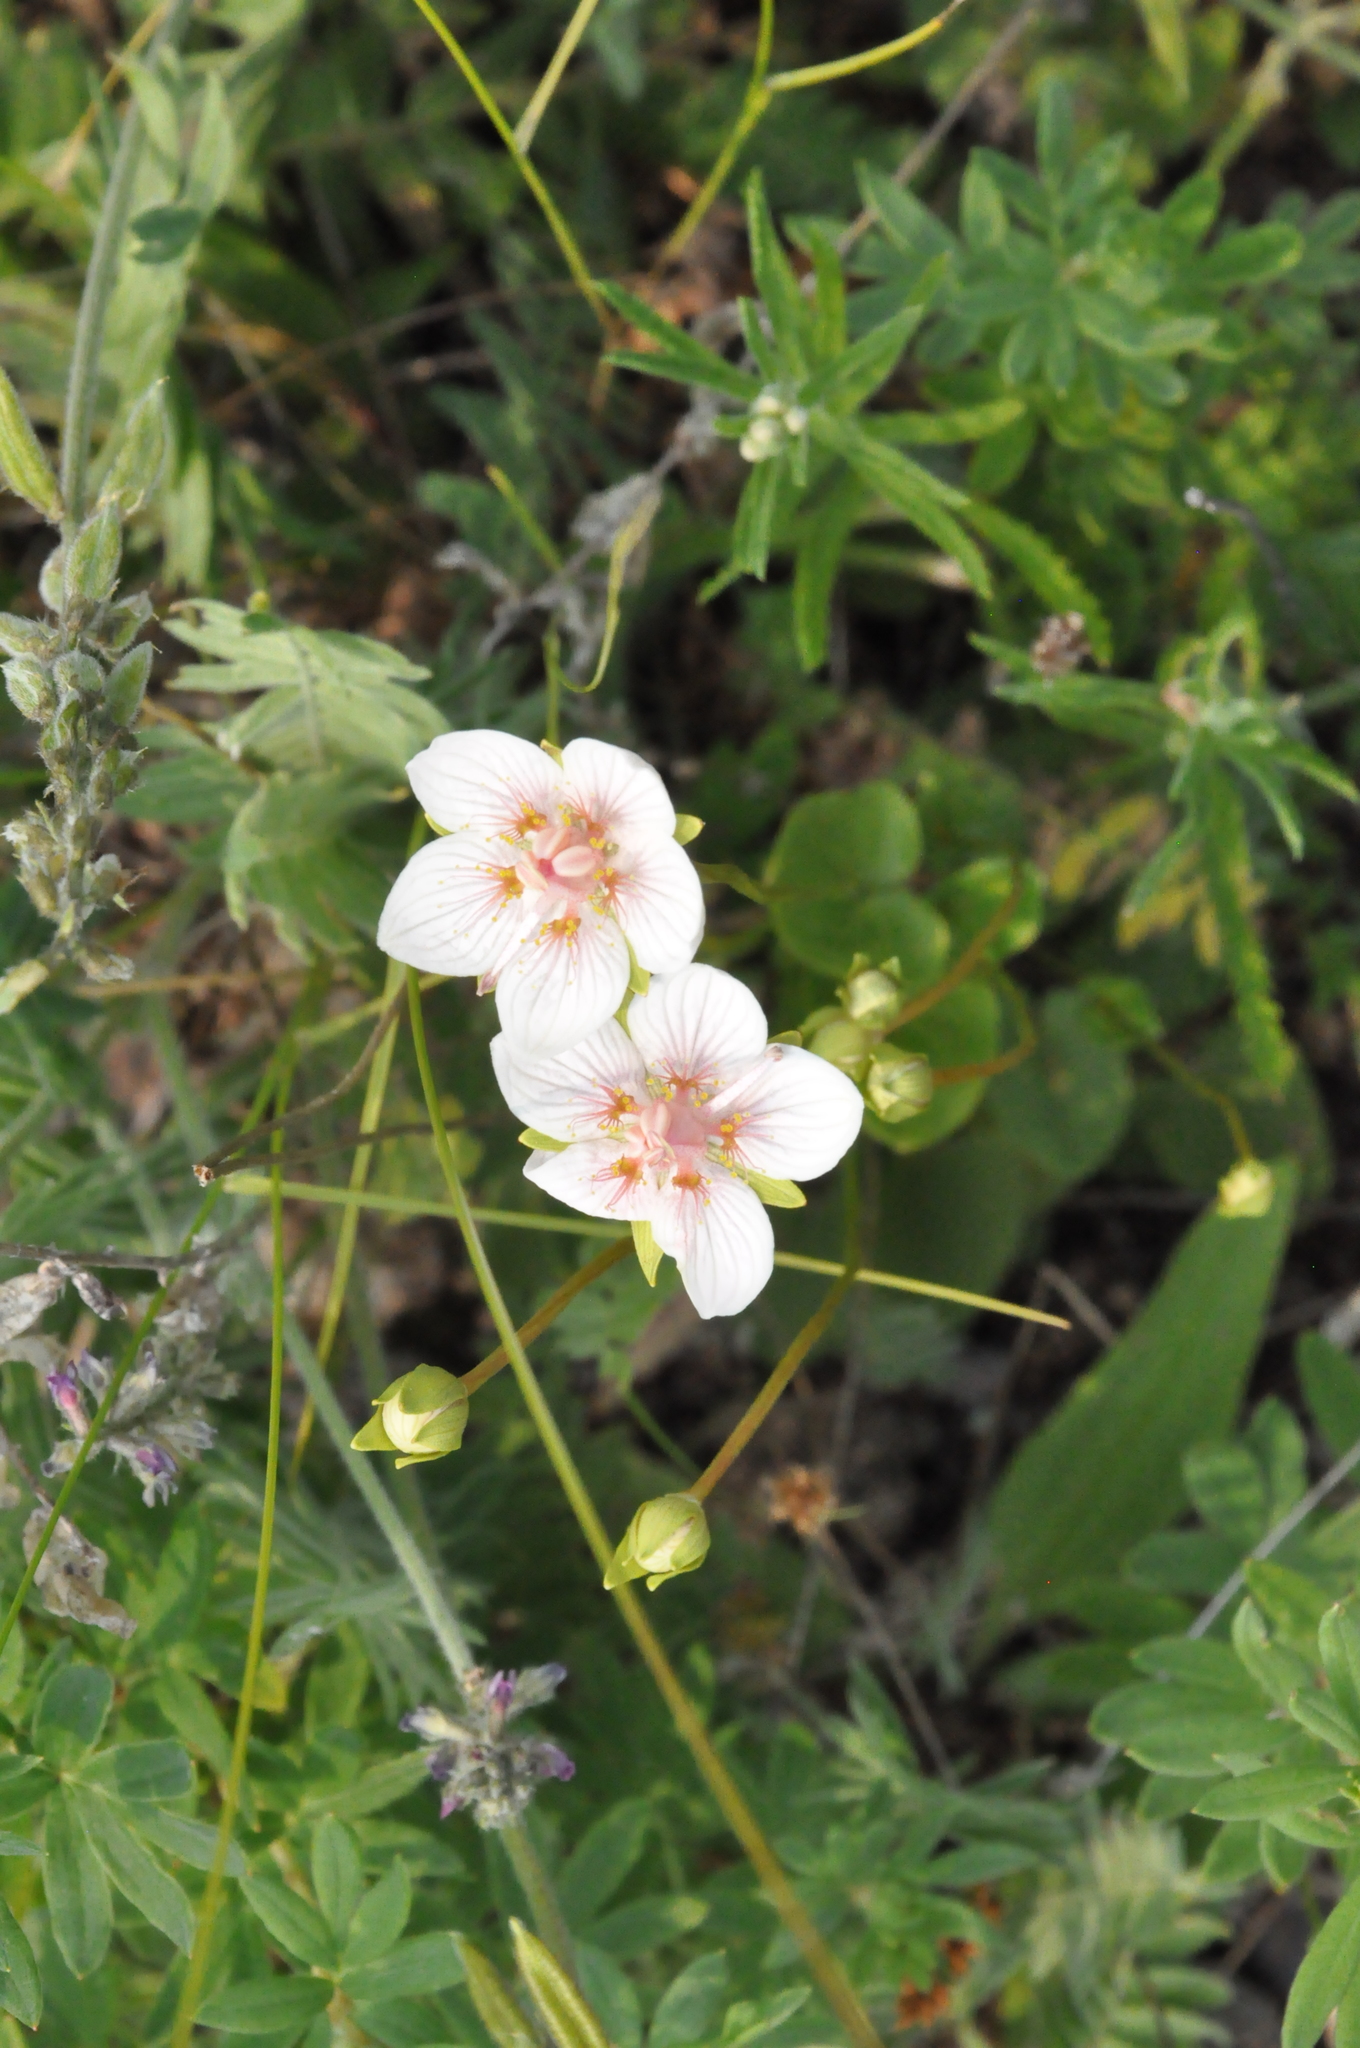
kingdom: Plantae
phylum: Tracheophyta
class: Magnoliopsida
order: Celastrales
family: Parnassiaceae
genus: Parnassia
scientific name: Parnassia palustris
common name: Grass-of-parnassus
